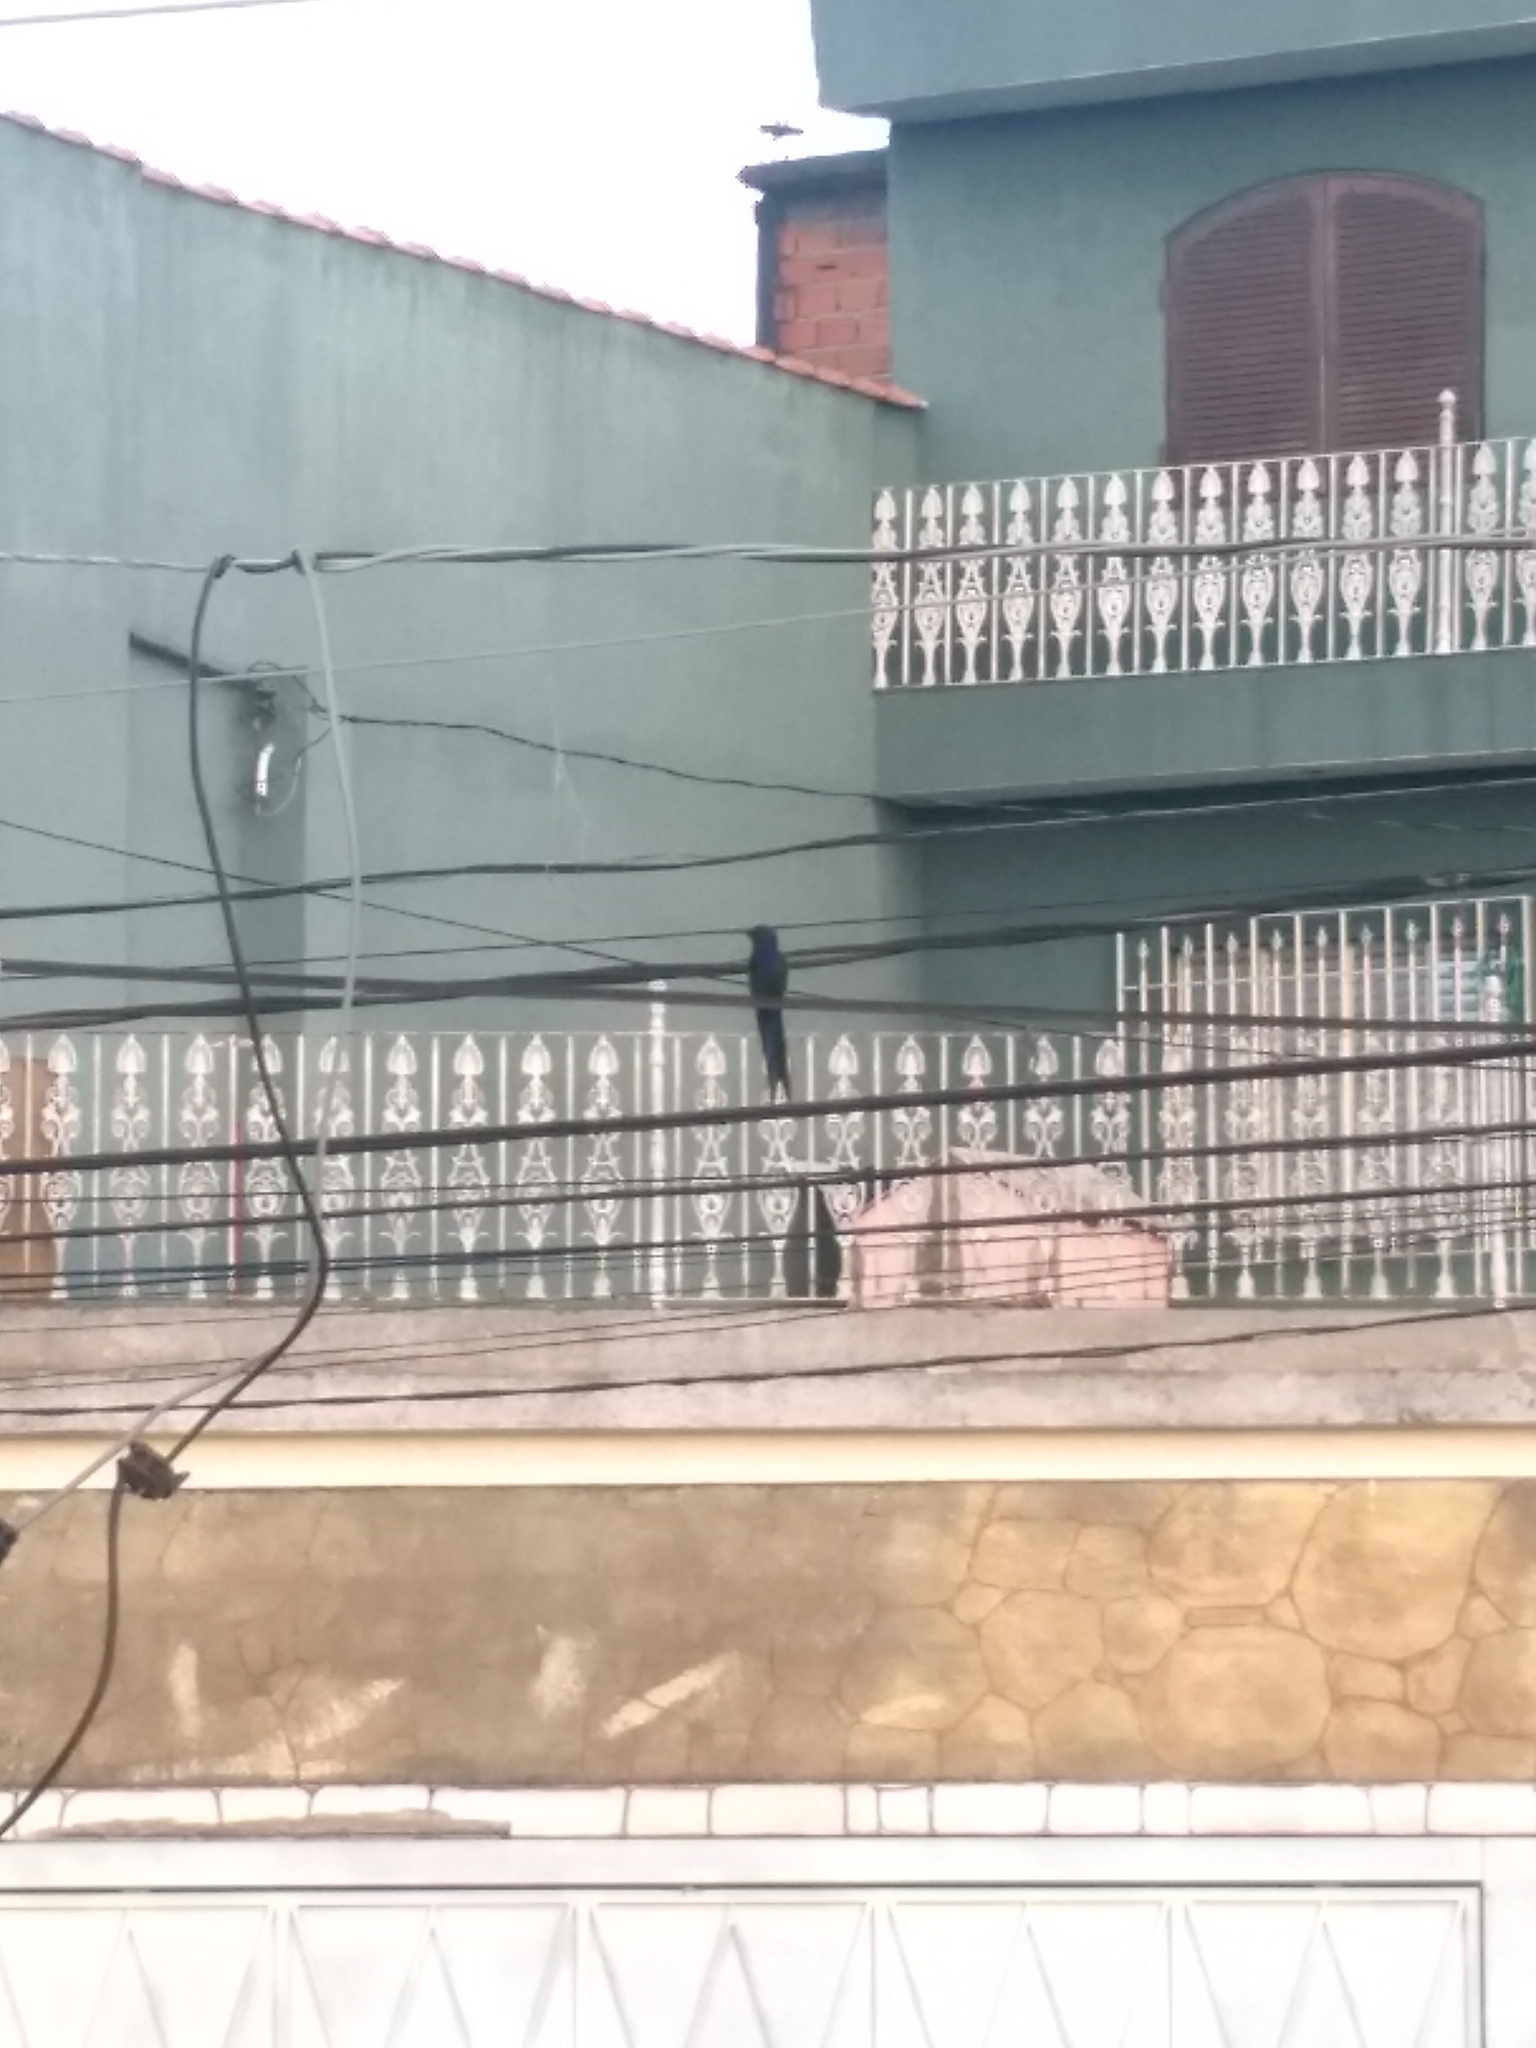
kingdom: Animalia
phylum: Chordata
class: Aves
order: Apodiformes
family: Trochilidae
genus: Eupetomena
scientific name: Eupetomena macroura
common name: Swallow-tailed hummingbird
